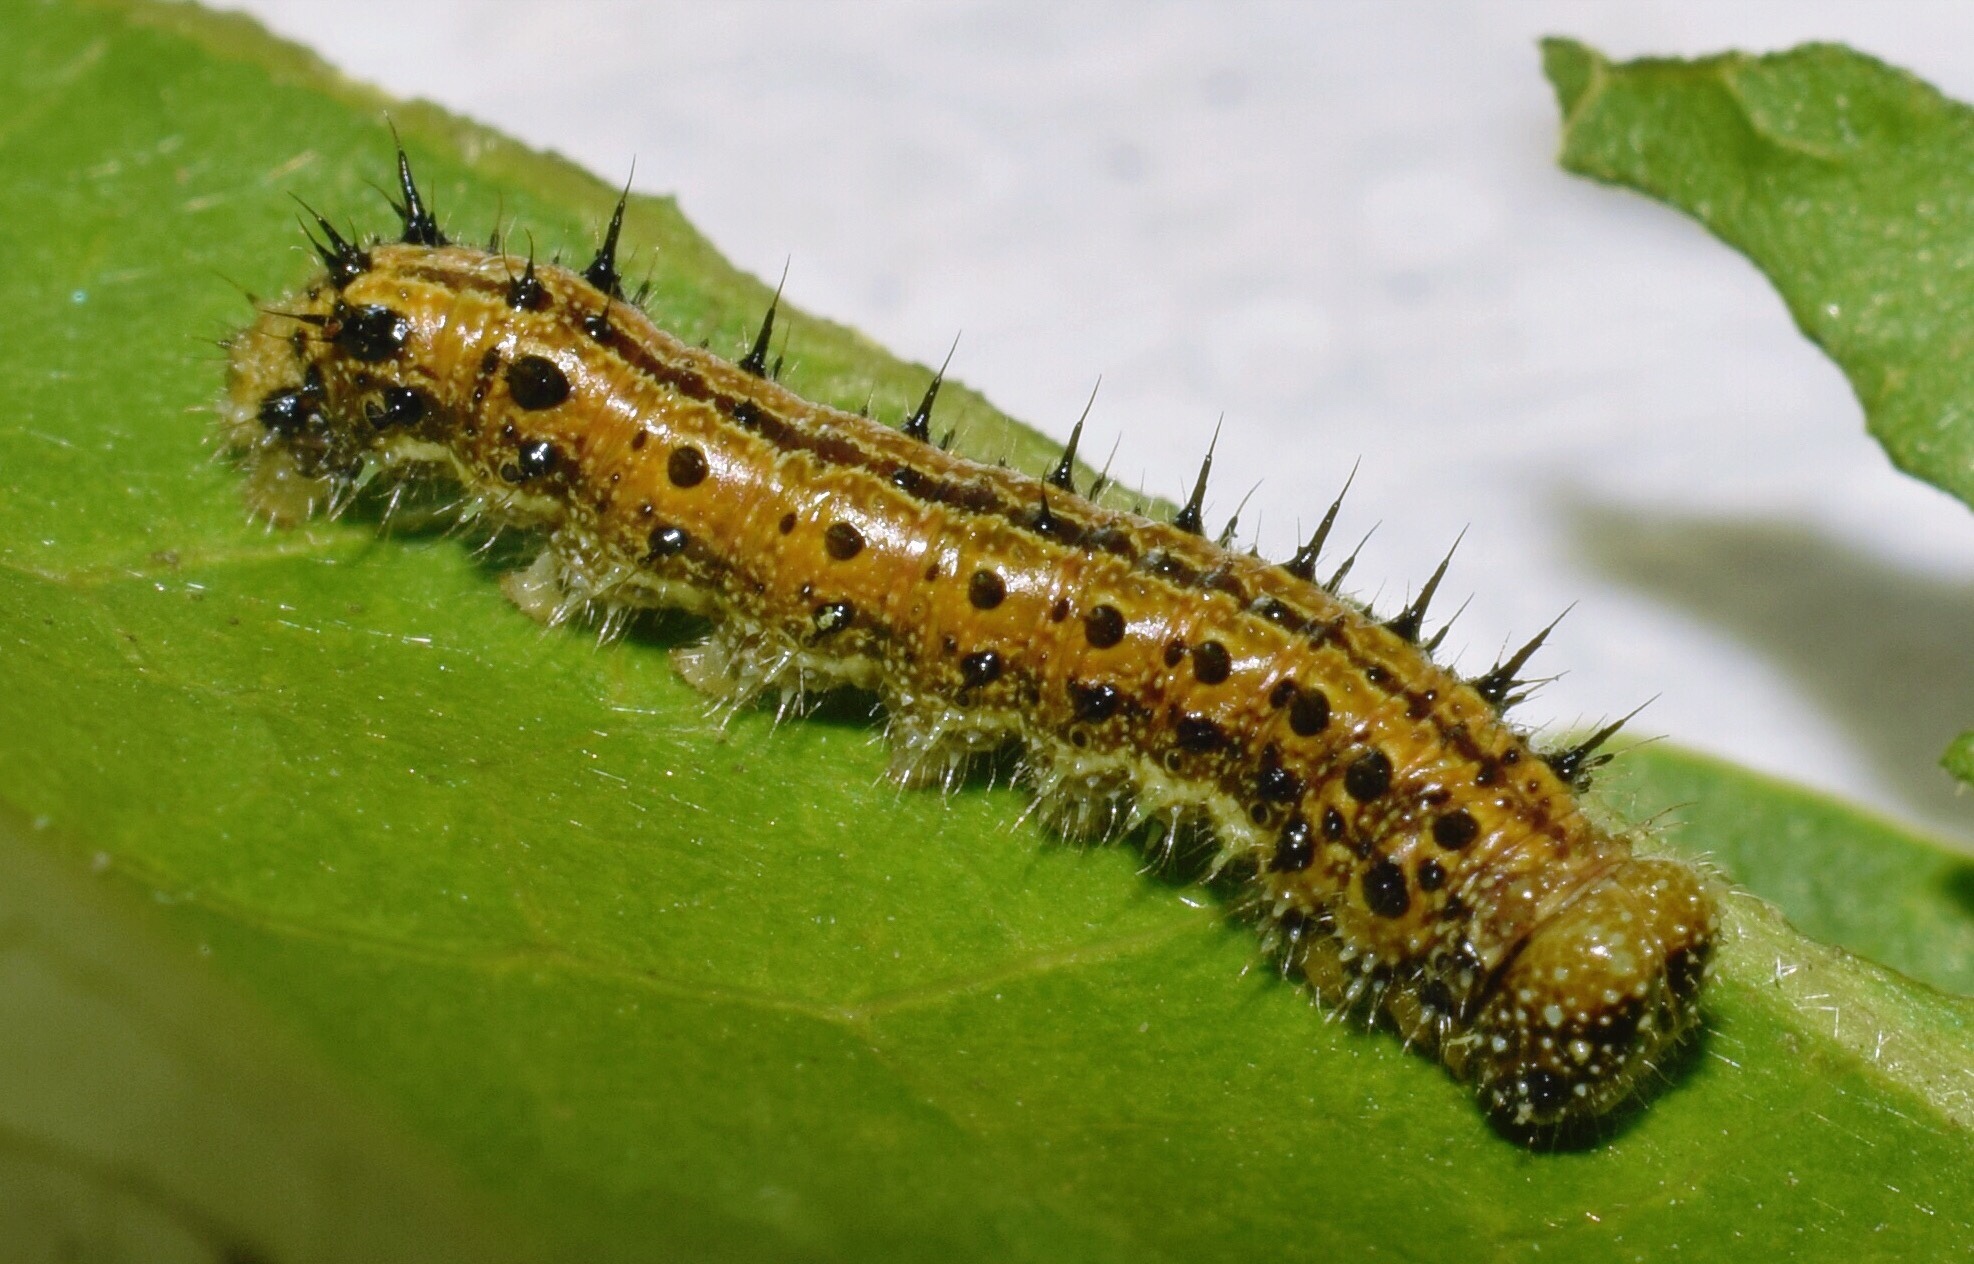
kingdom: Animalia
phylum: Arthropoda
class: Insecta
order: Lepidoptera
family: Nymphalidae
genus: Asterope
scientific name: Asterope boisduvali
